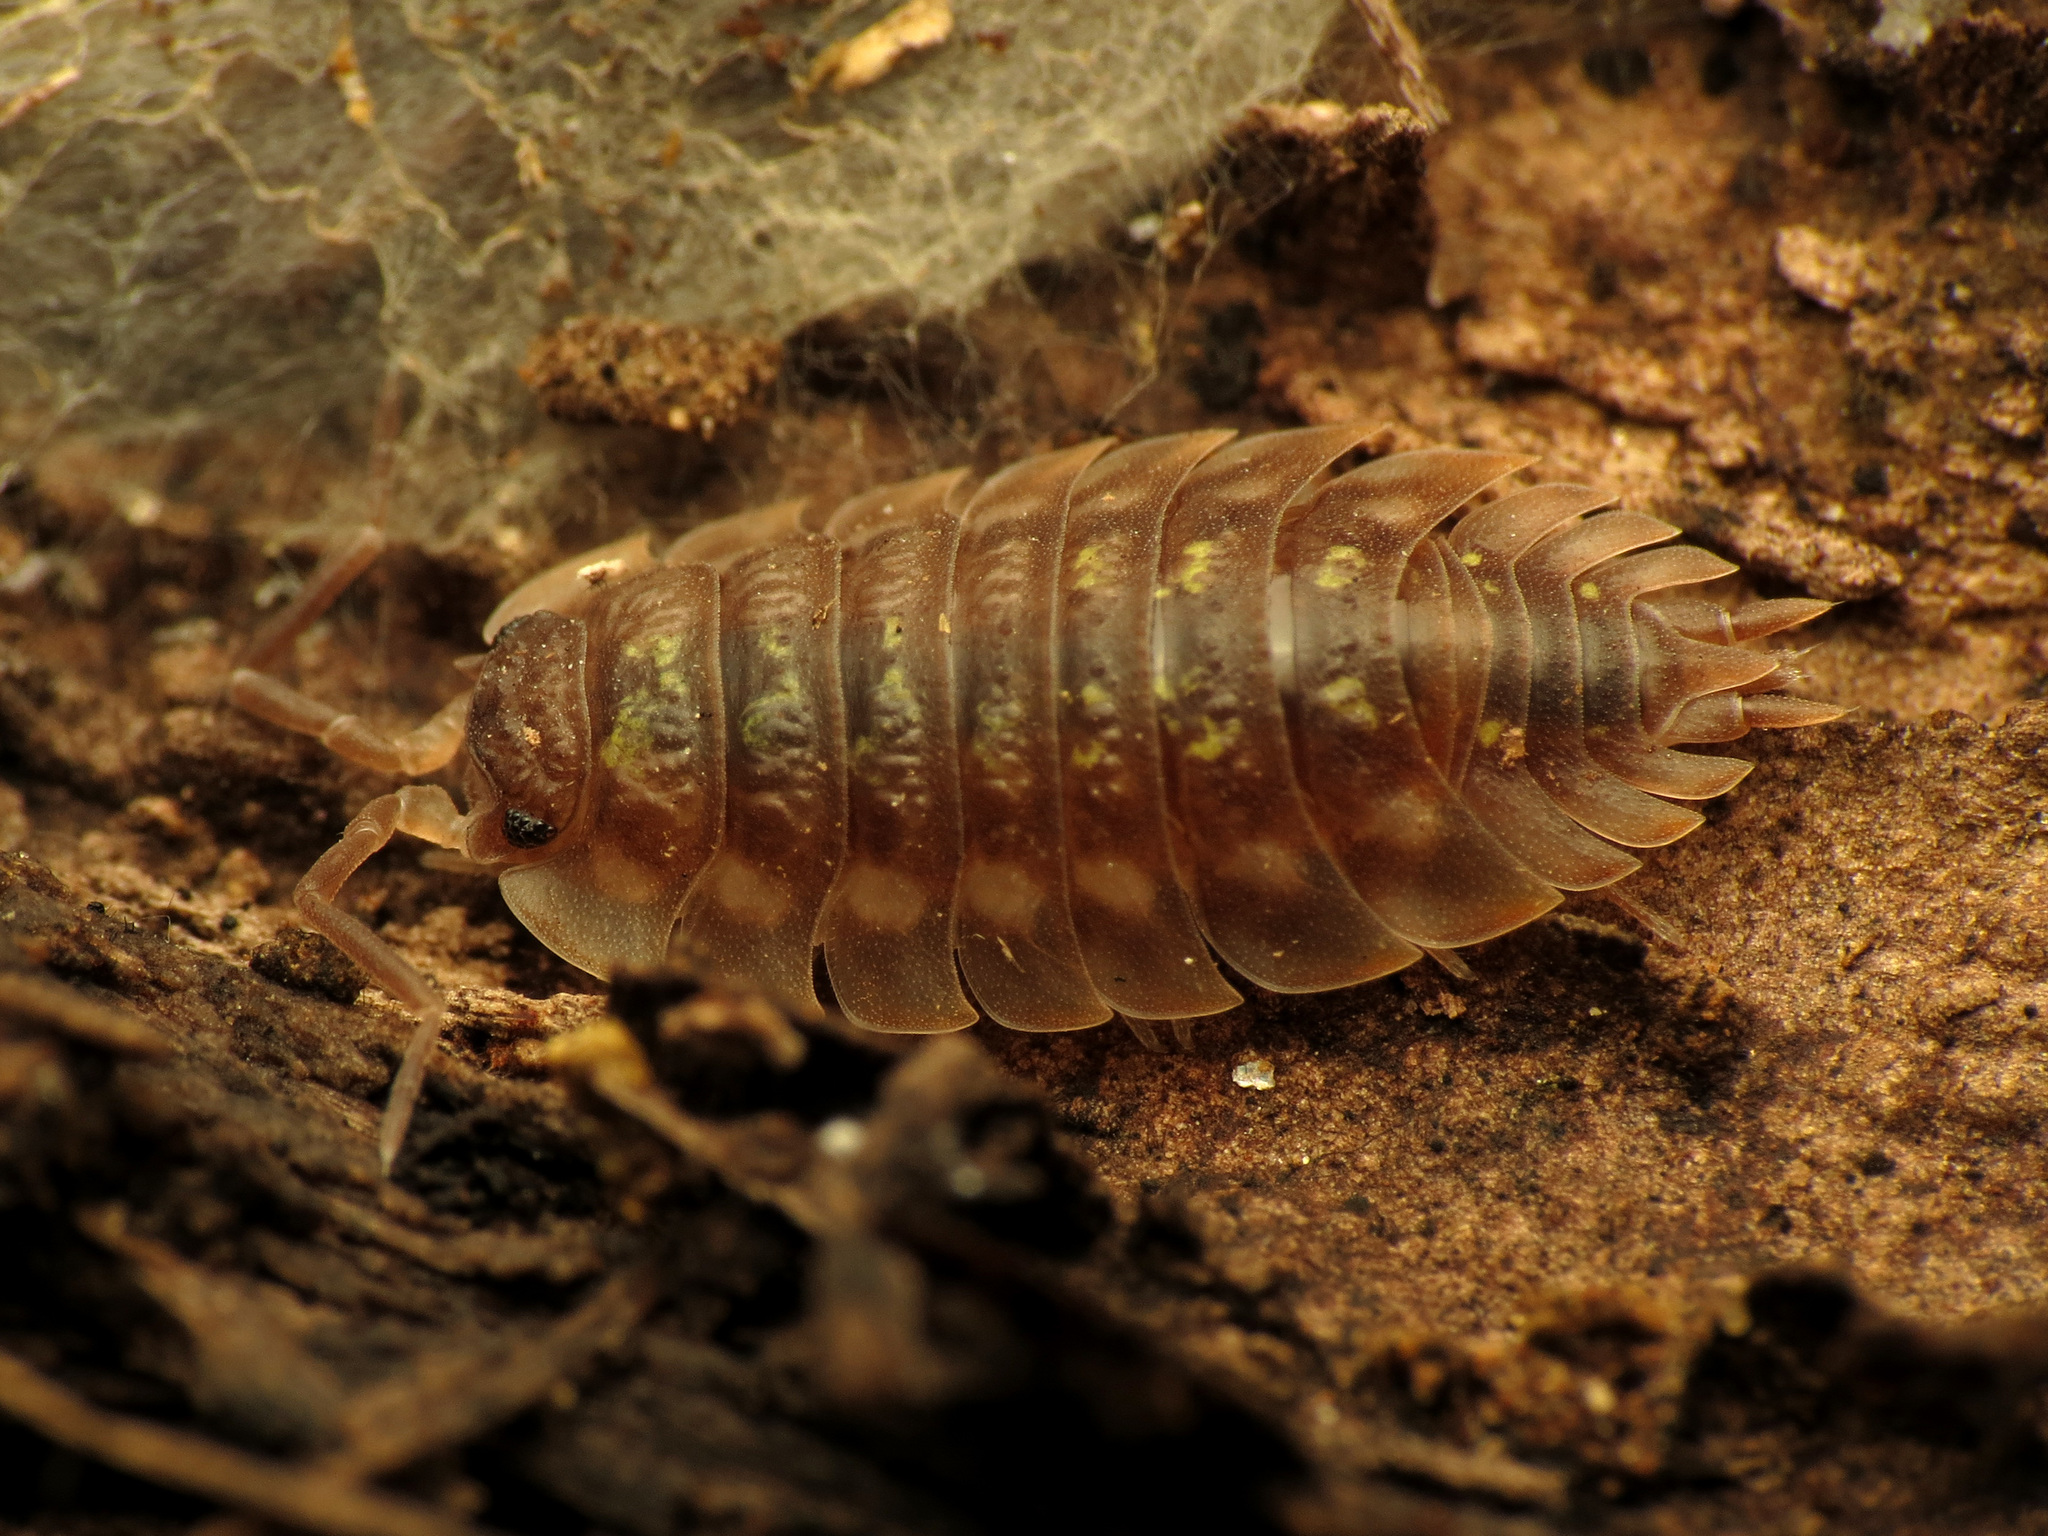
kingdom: Animalia
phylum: Arthropoda
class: Malacostraca
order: Isopoda
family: Oniscidae
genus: Oniscus
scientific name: Oniscus asellus
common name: Common shiny woodlouse
